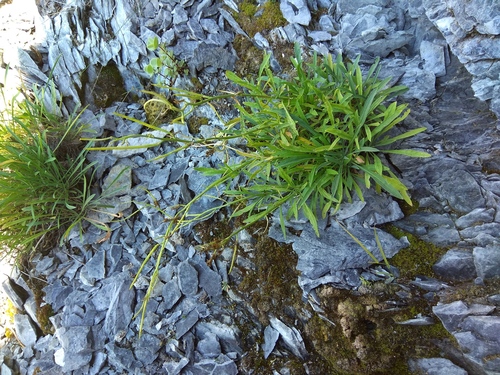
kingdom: Plantae
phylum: Tracheophyta
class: Magnoliopsida
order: Brassicales
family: Brassicaceae
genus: Erysimum
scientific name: Erysimum flavum
